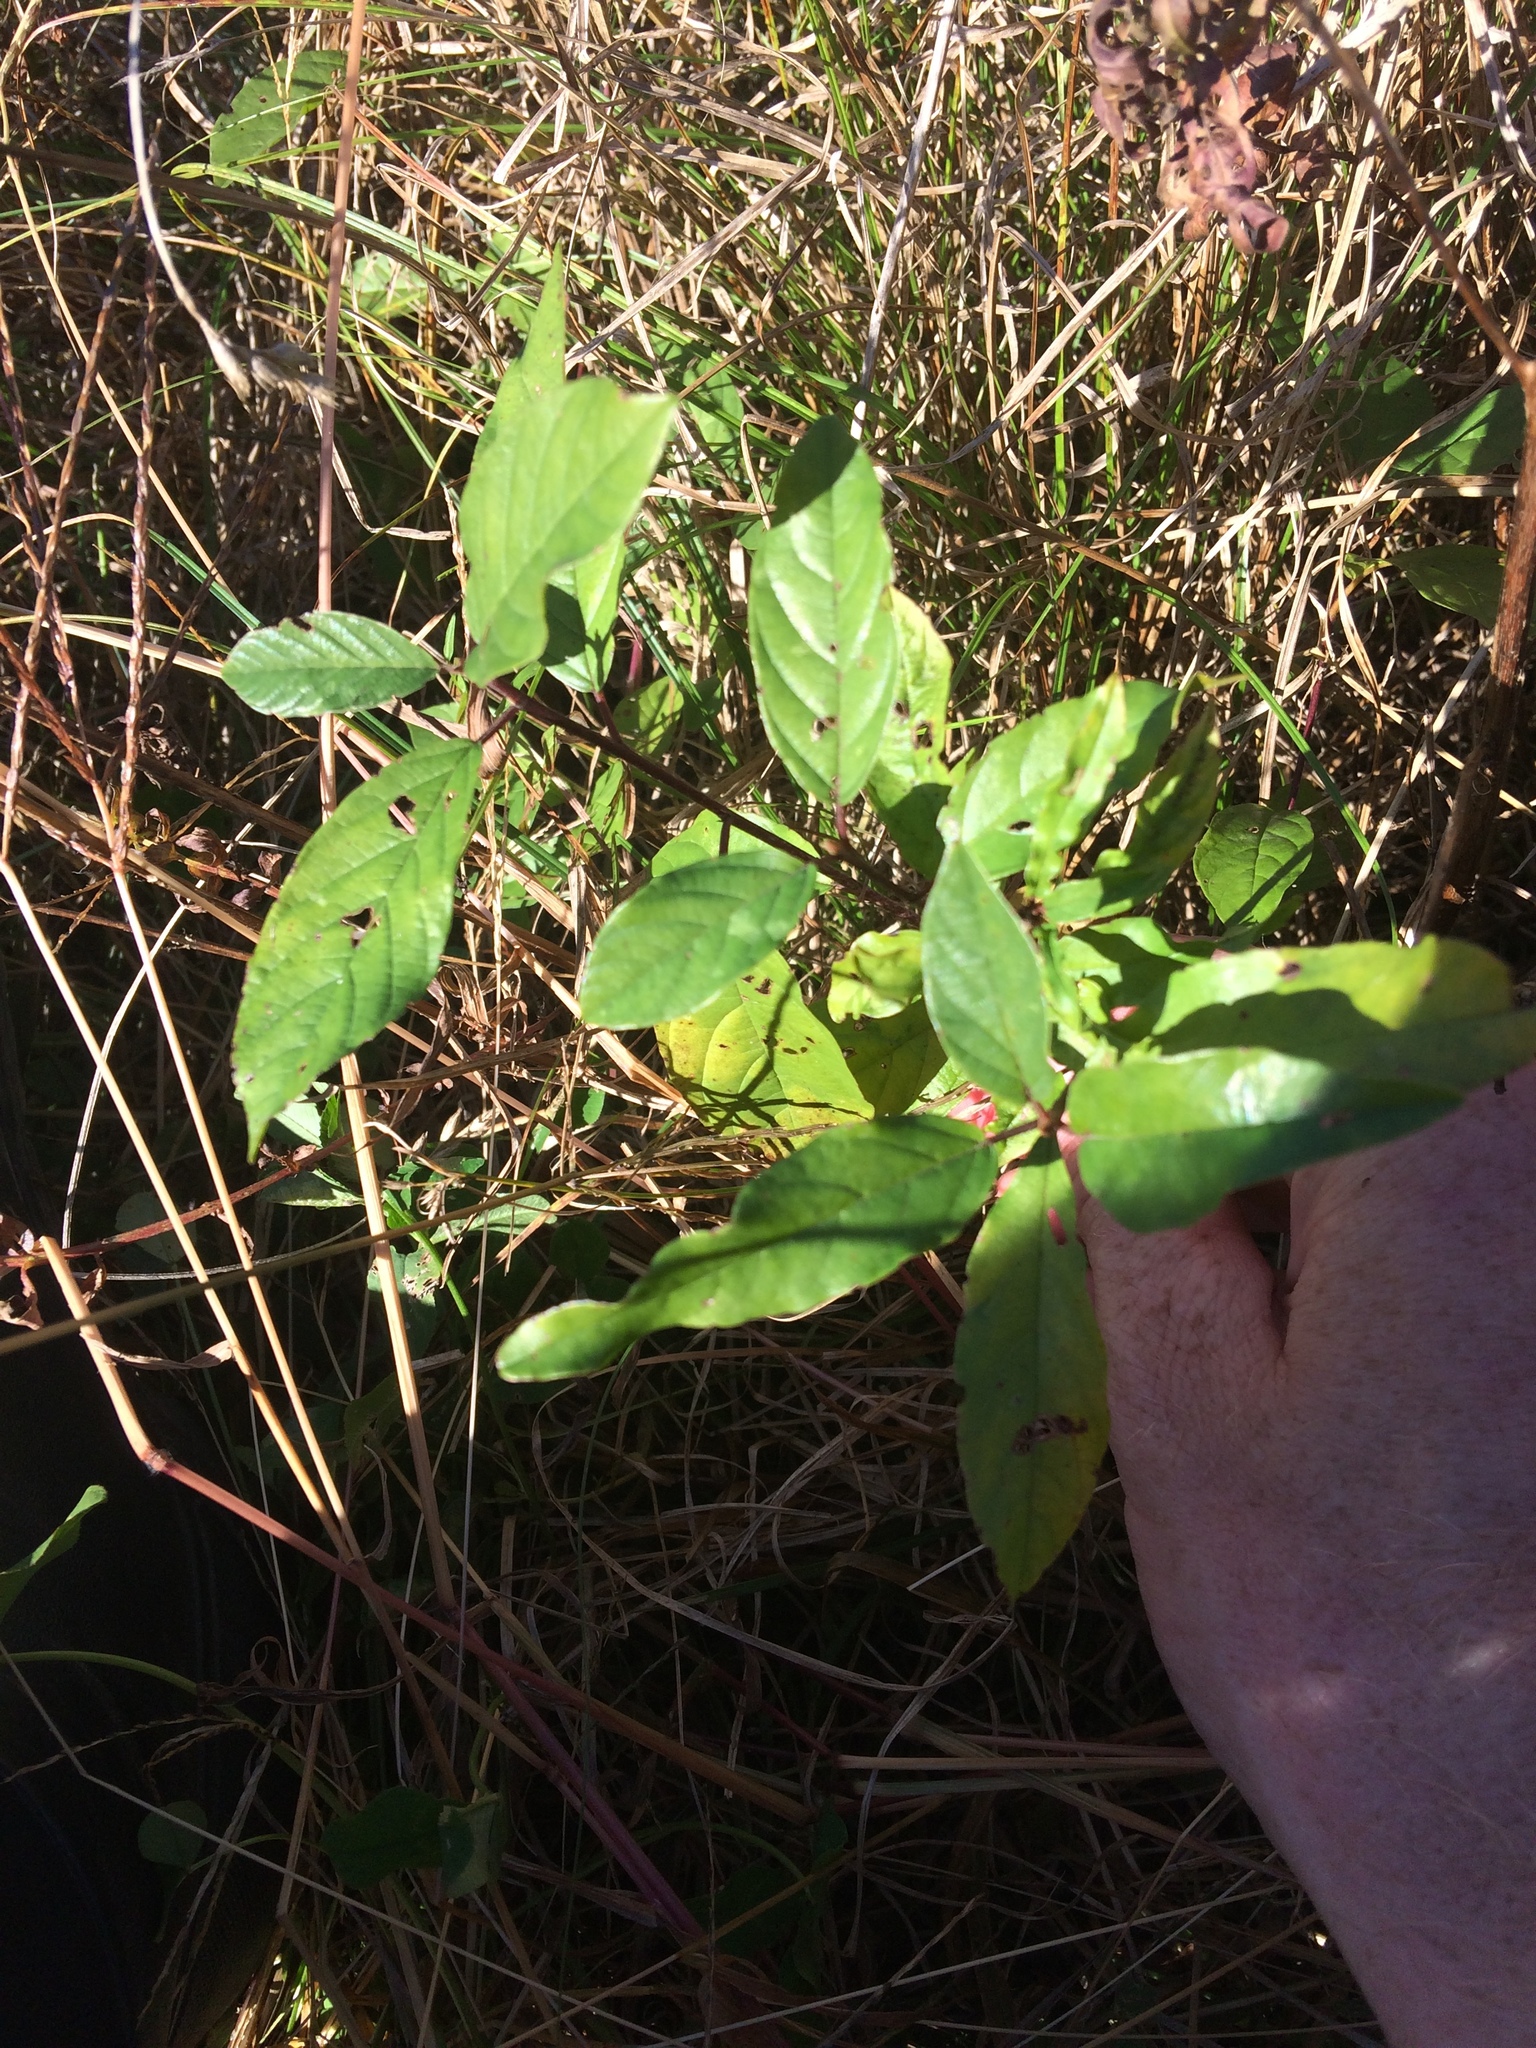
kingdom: Plantae
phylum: Tracheophyta
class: Magnoliopsida
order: Rosales
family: Rhamnaceae
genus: Frangula
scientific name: Frangula alnus
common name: Alder buckthorn
